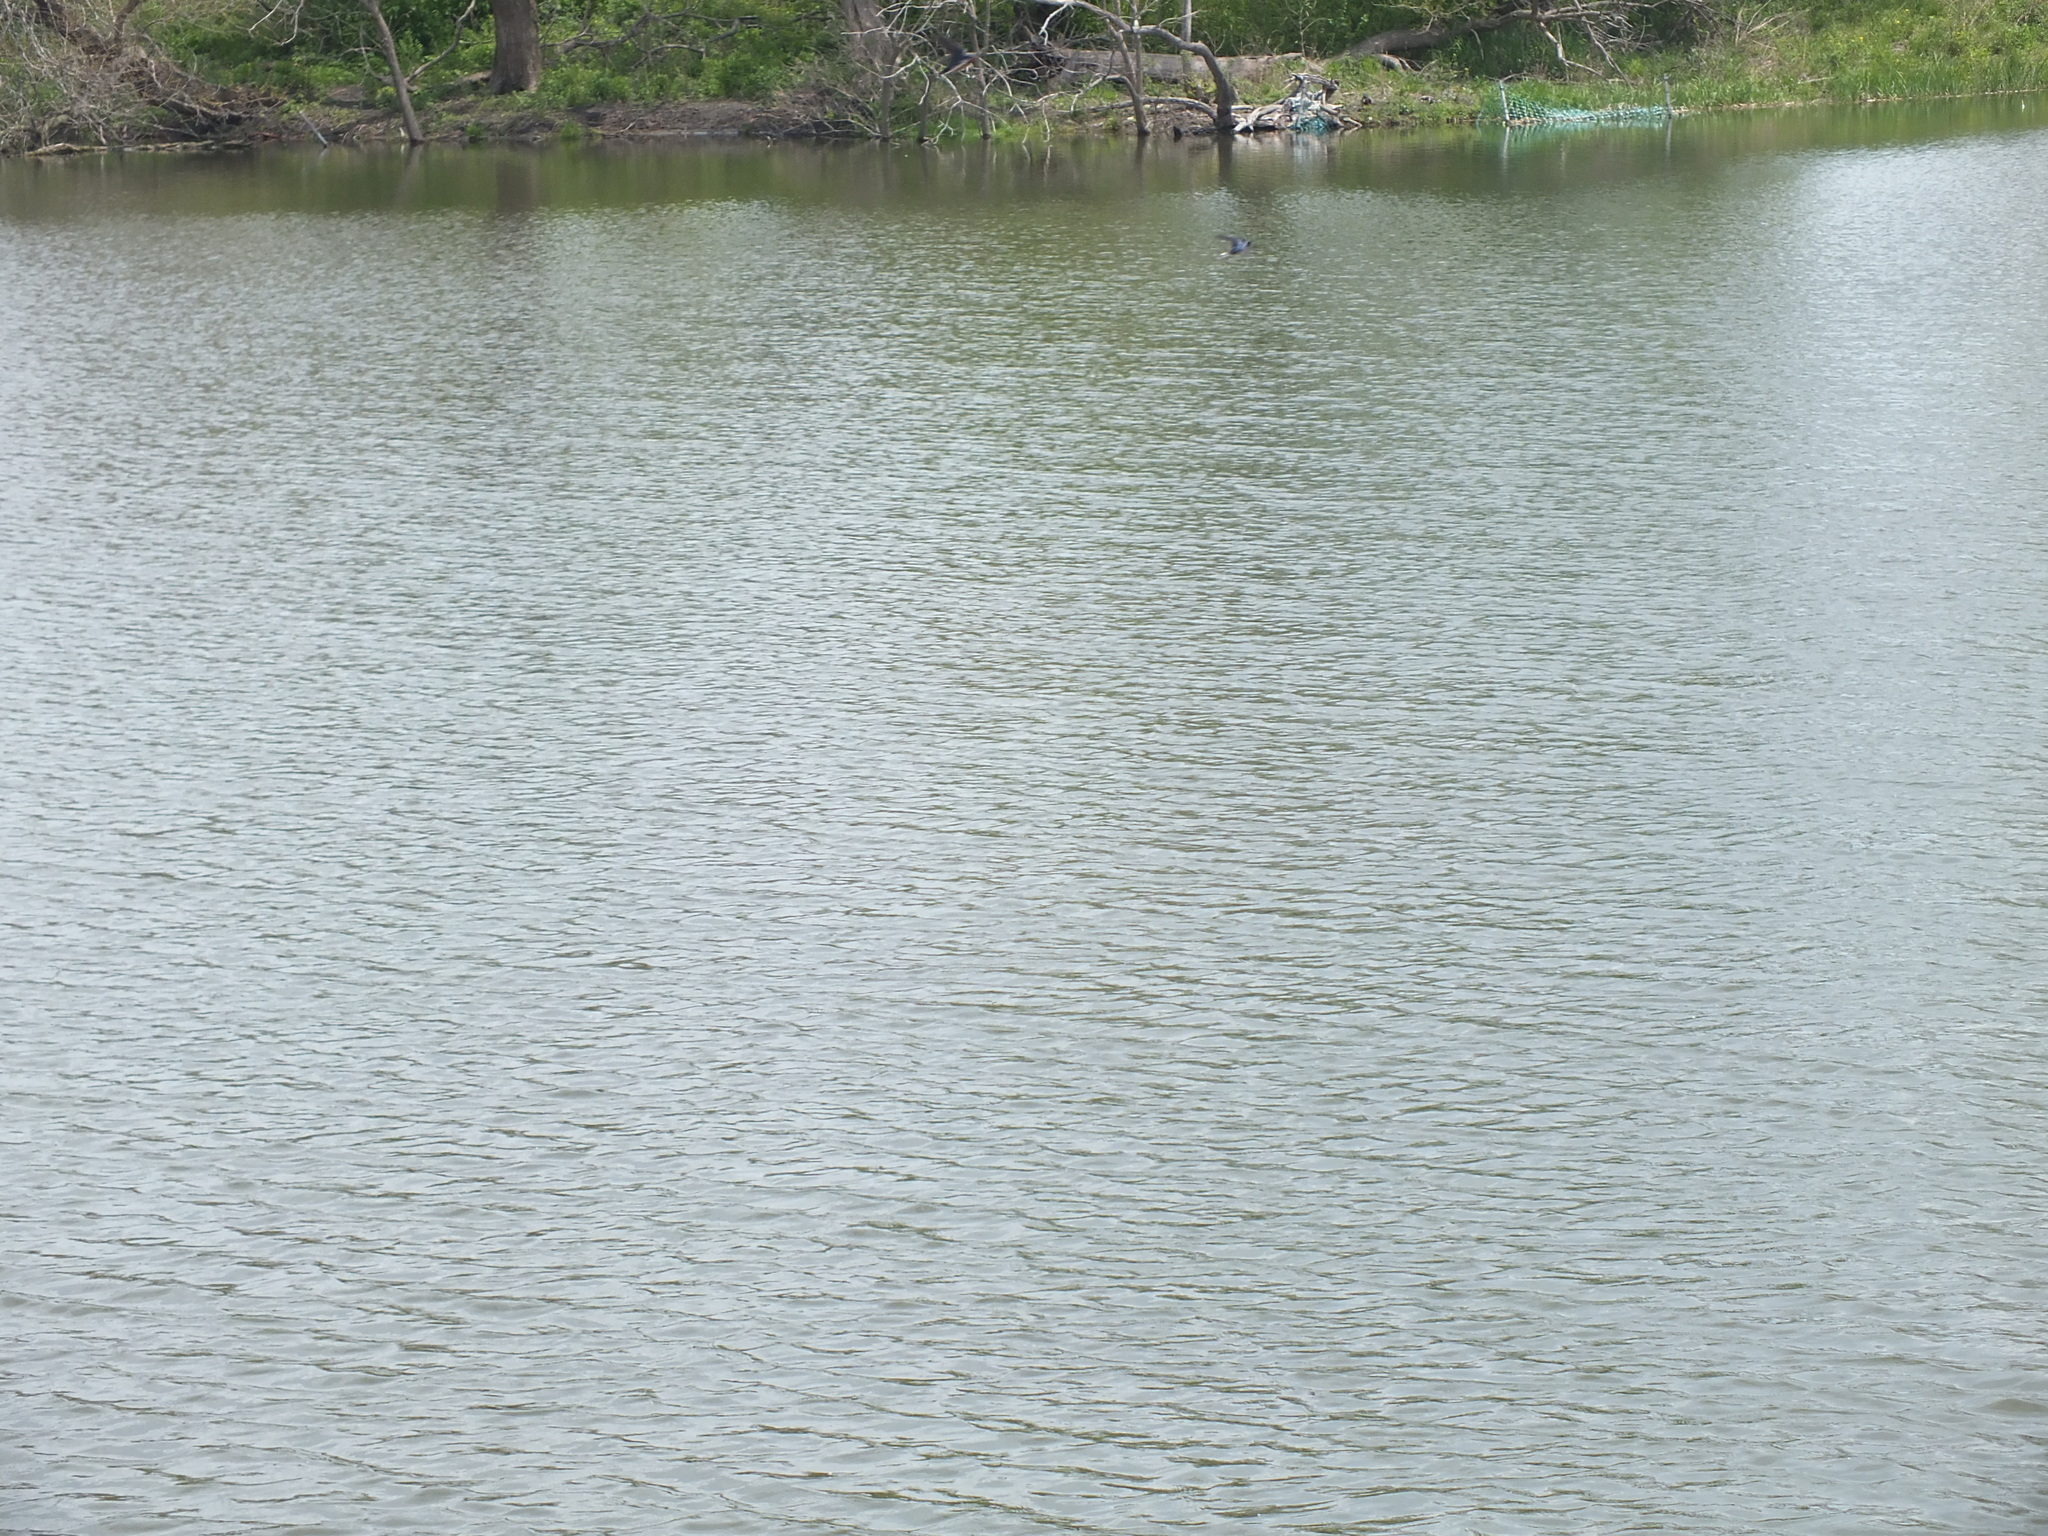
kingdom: Animalia
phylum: Chordata
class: Aves
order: Passeriformes
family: Hirundinidae
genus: Hirundo
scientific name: Hirundo rustica
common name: Barn swallow
